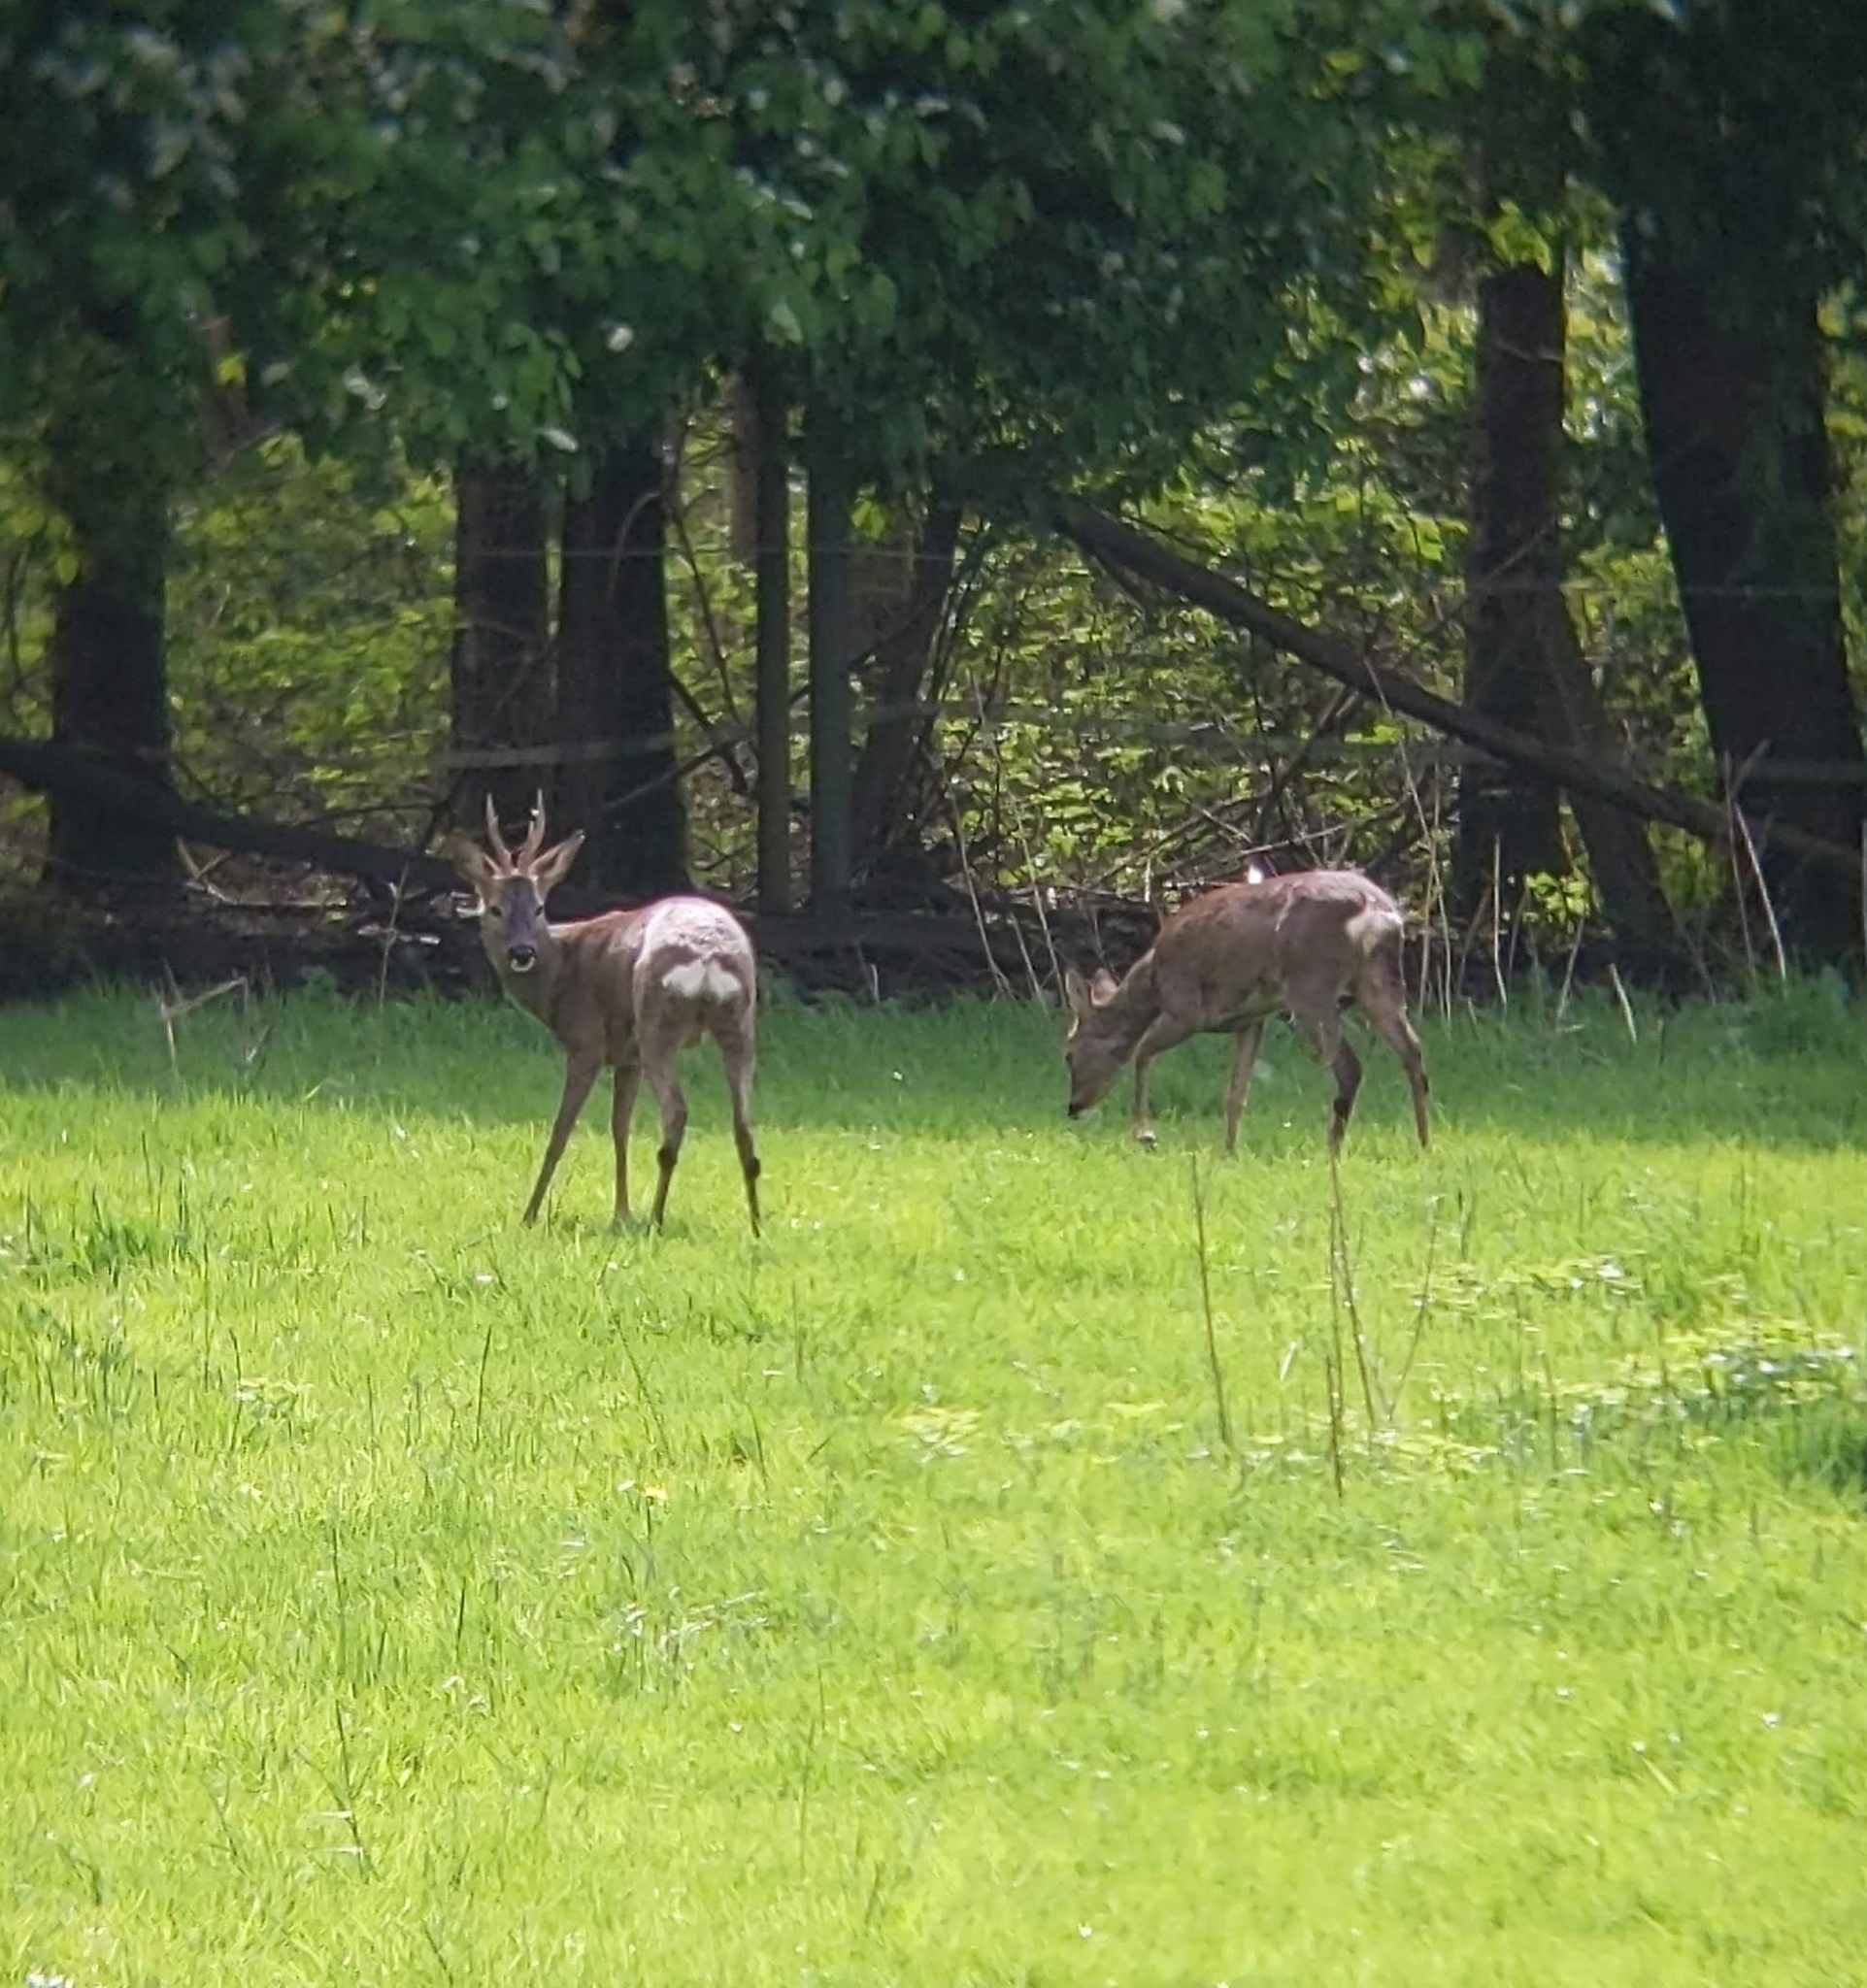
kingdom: Animalia
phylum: Chordata
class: Mammalia
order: Artiodactyla
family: Cervidae
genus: Capreolus
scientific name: Capreolus capreolus
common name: Western roe deer
